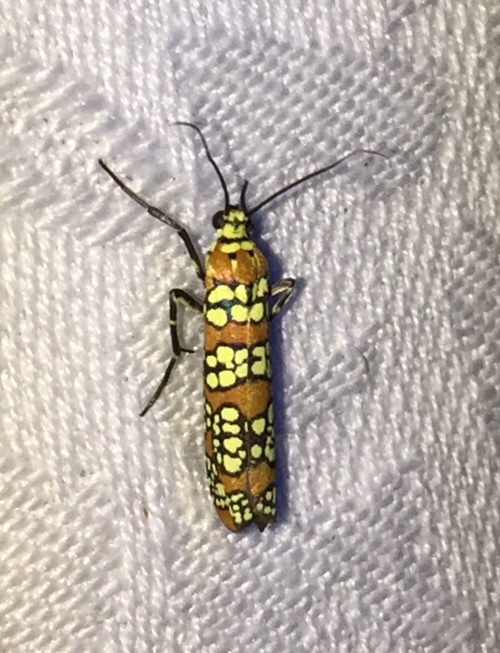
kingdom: Animalia
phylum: Arthropoda
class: Insecta
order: Lepidoptera
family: Attevidae
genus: Atteva
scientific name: Atteva punctella
